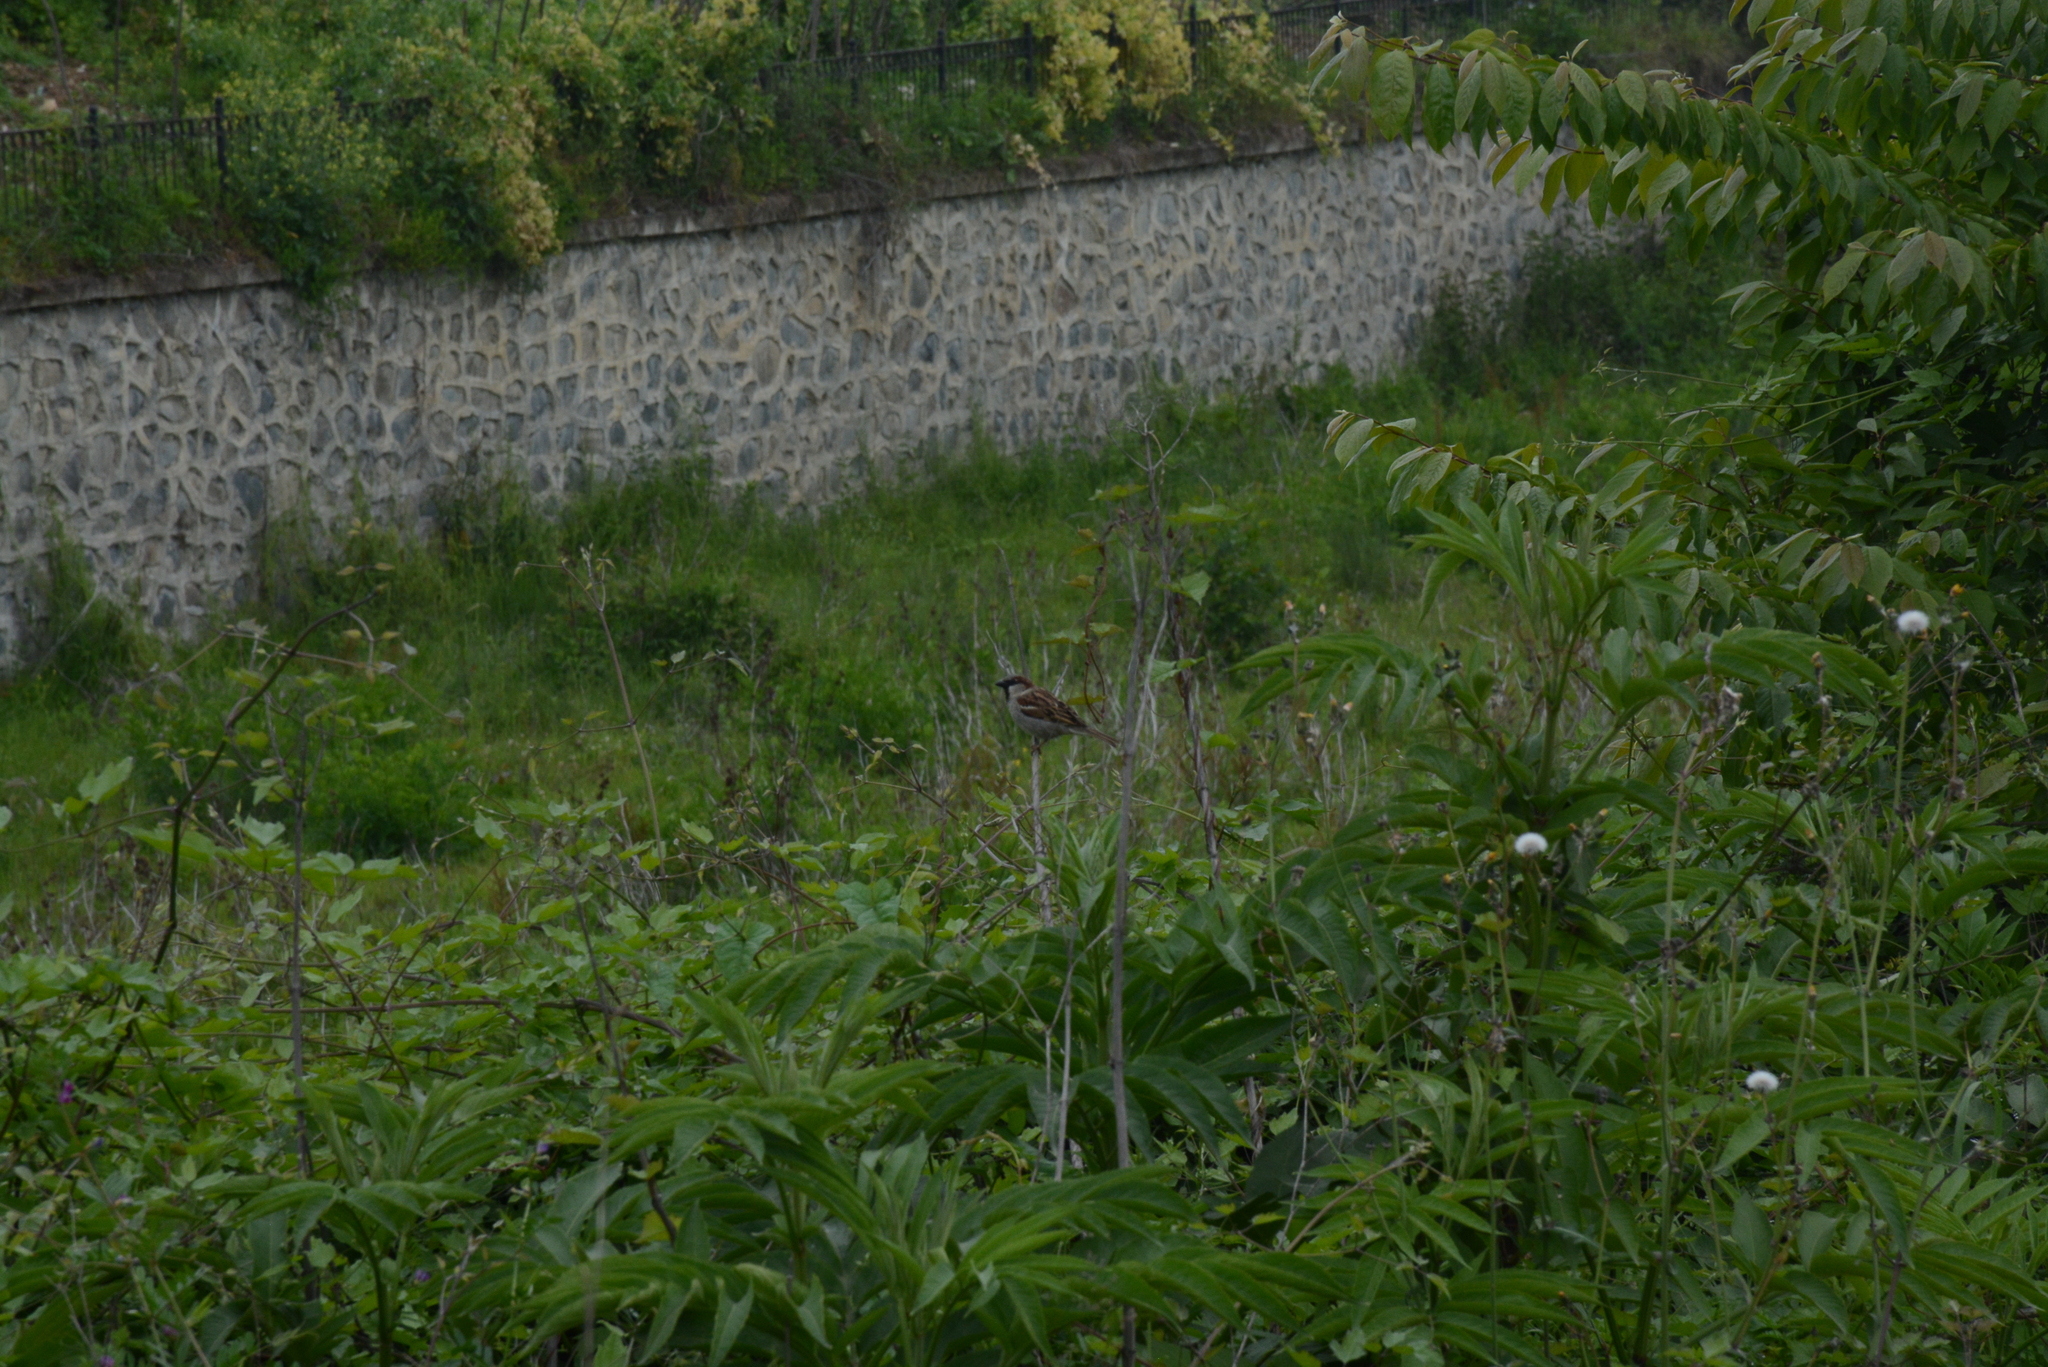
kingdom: Animalia
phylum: Chordata
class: Aves
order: Passeriformes
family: Passeridae
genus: Passer
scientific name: Passer domesticus
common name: House sparrow
